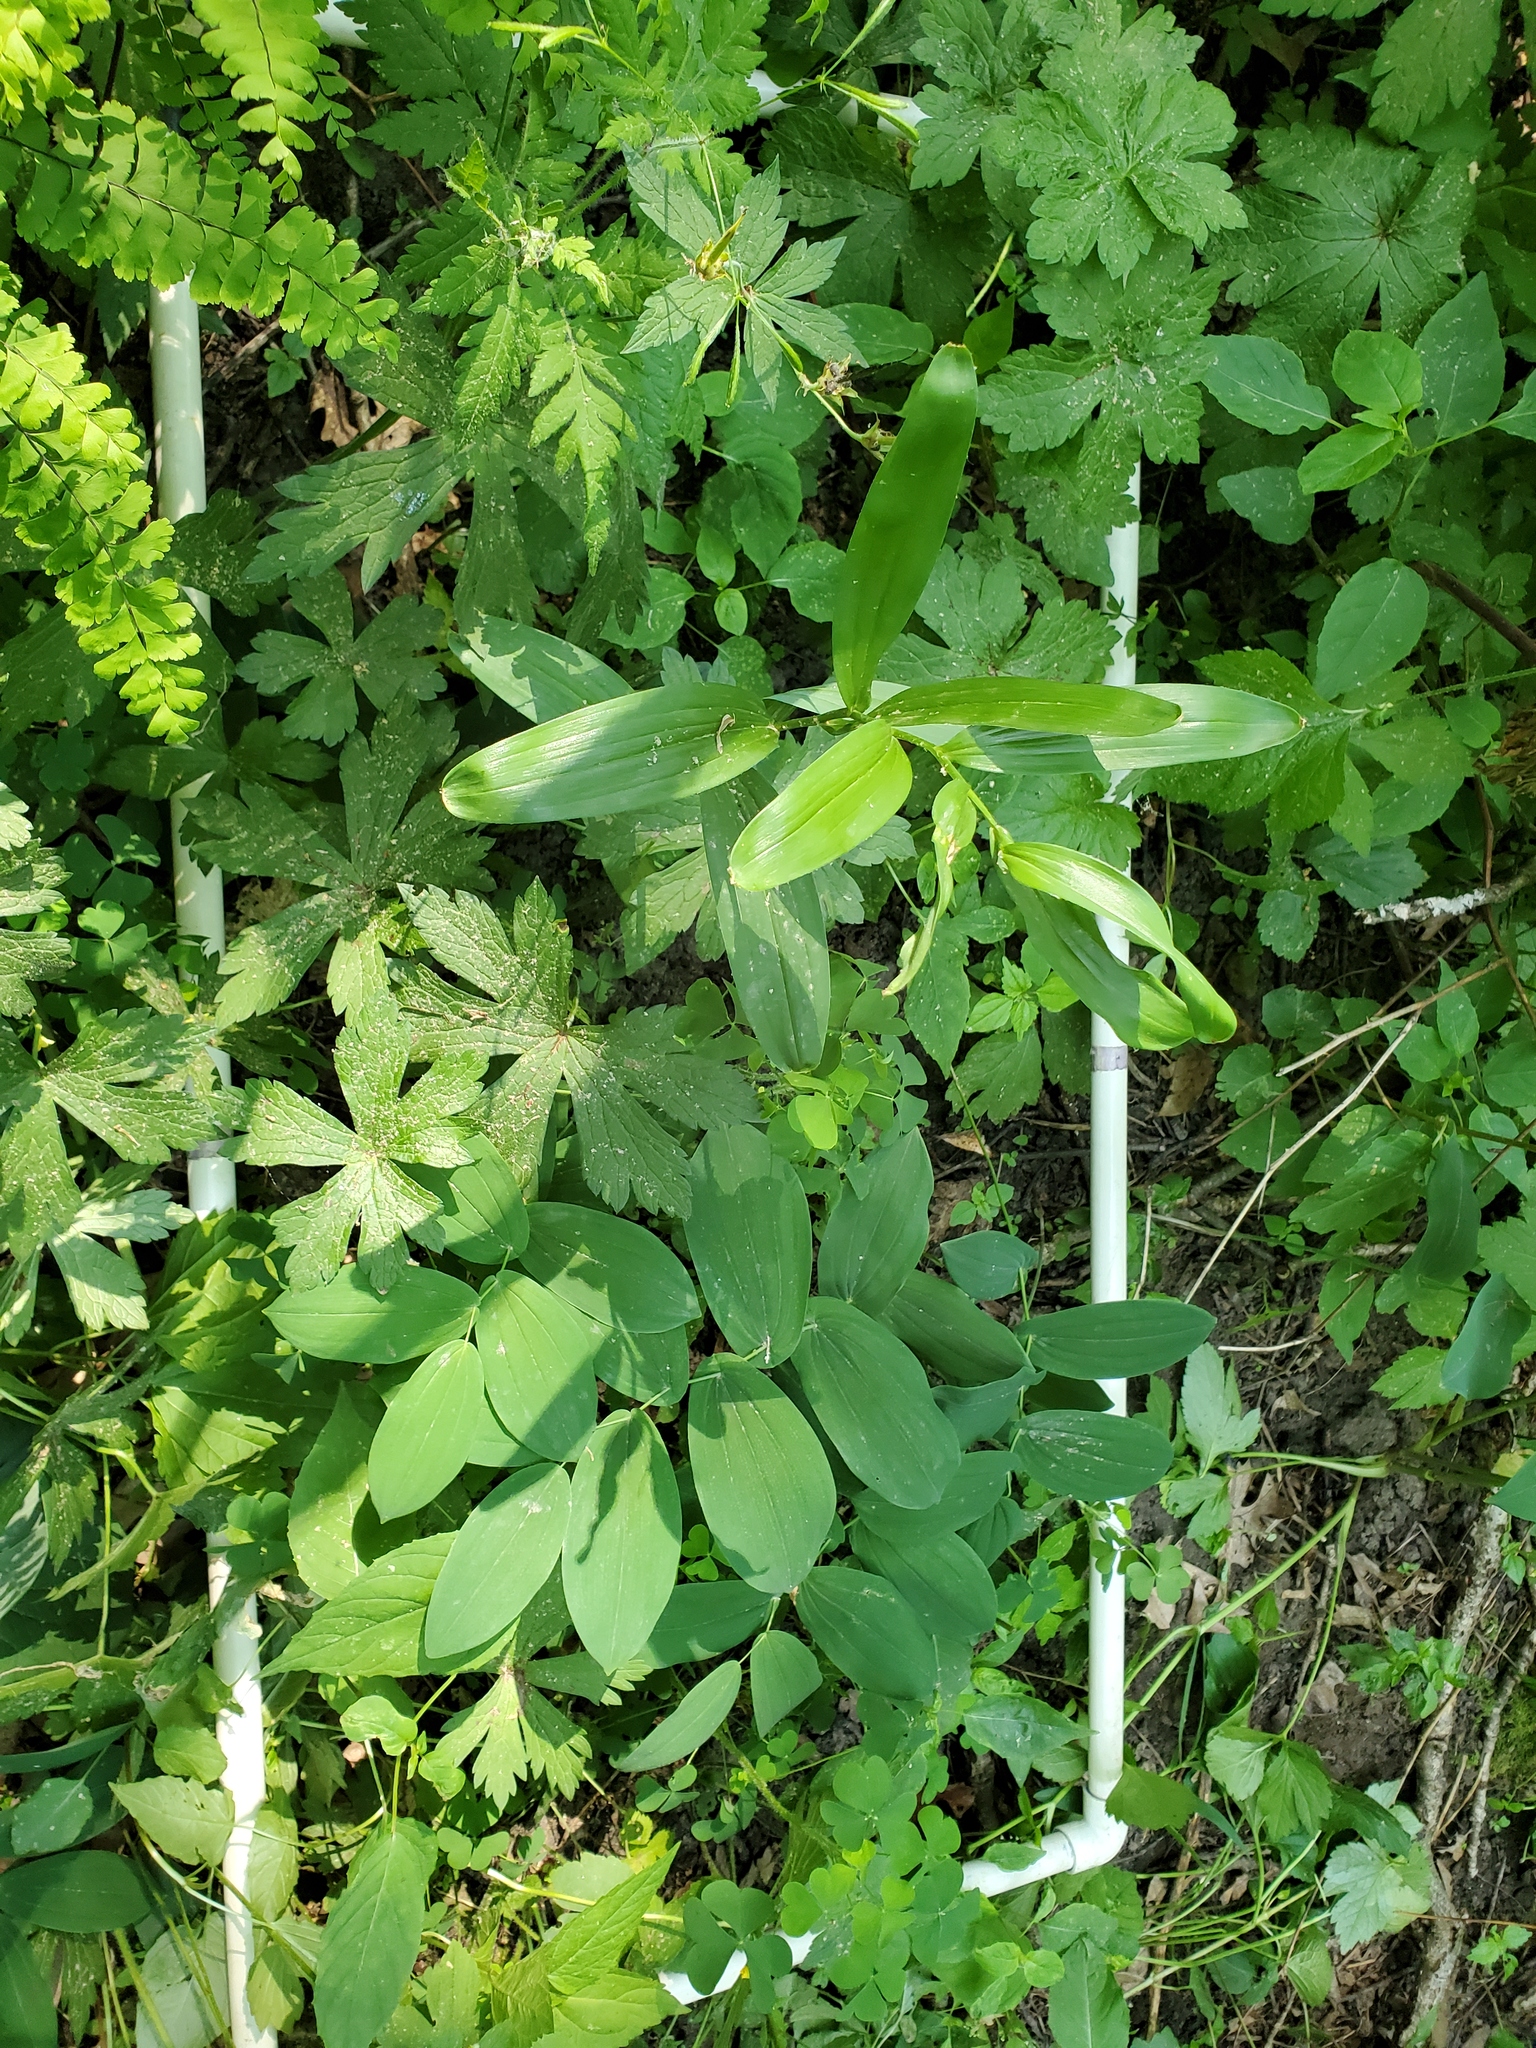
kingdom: Plantae
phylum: Tracheophyta
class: Liliopsida
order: Asparagales
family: Asparagaceae
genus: Maianthemum
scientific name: Maianthemum stellatum
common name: Little false solomon's seal
